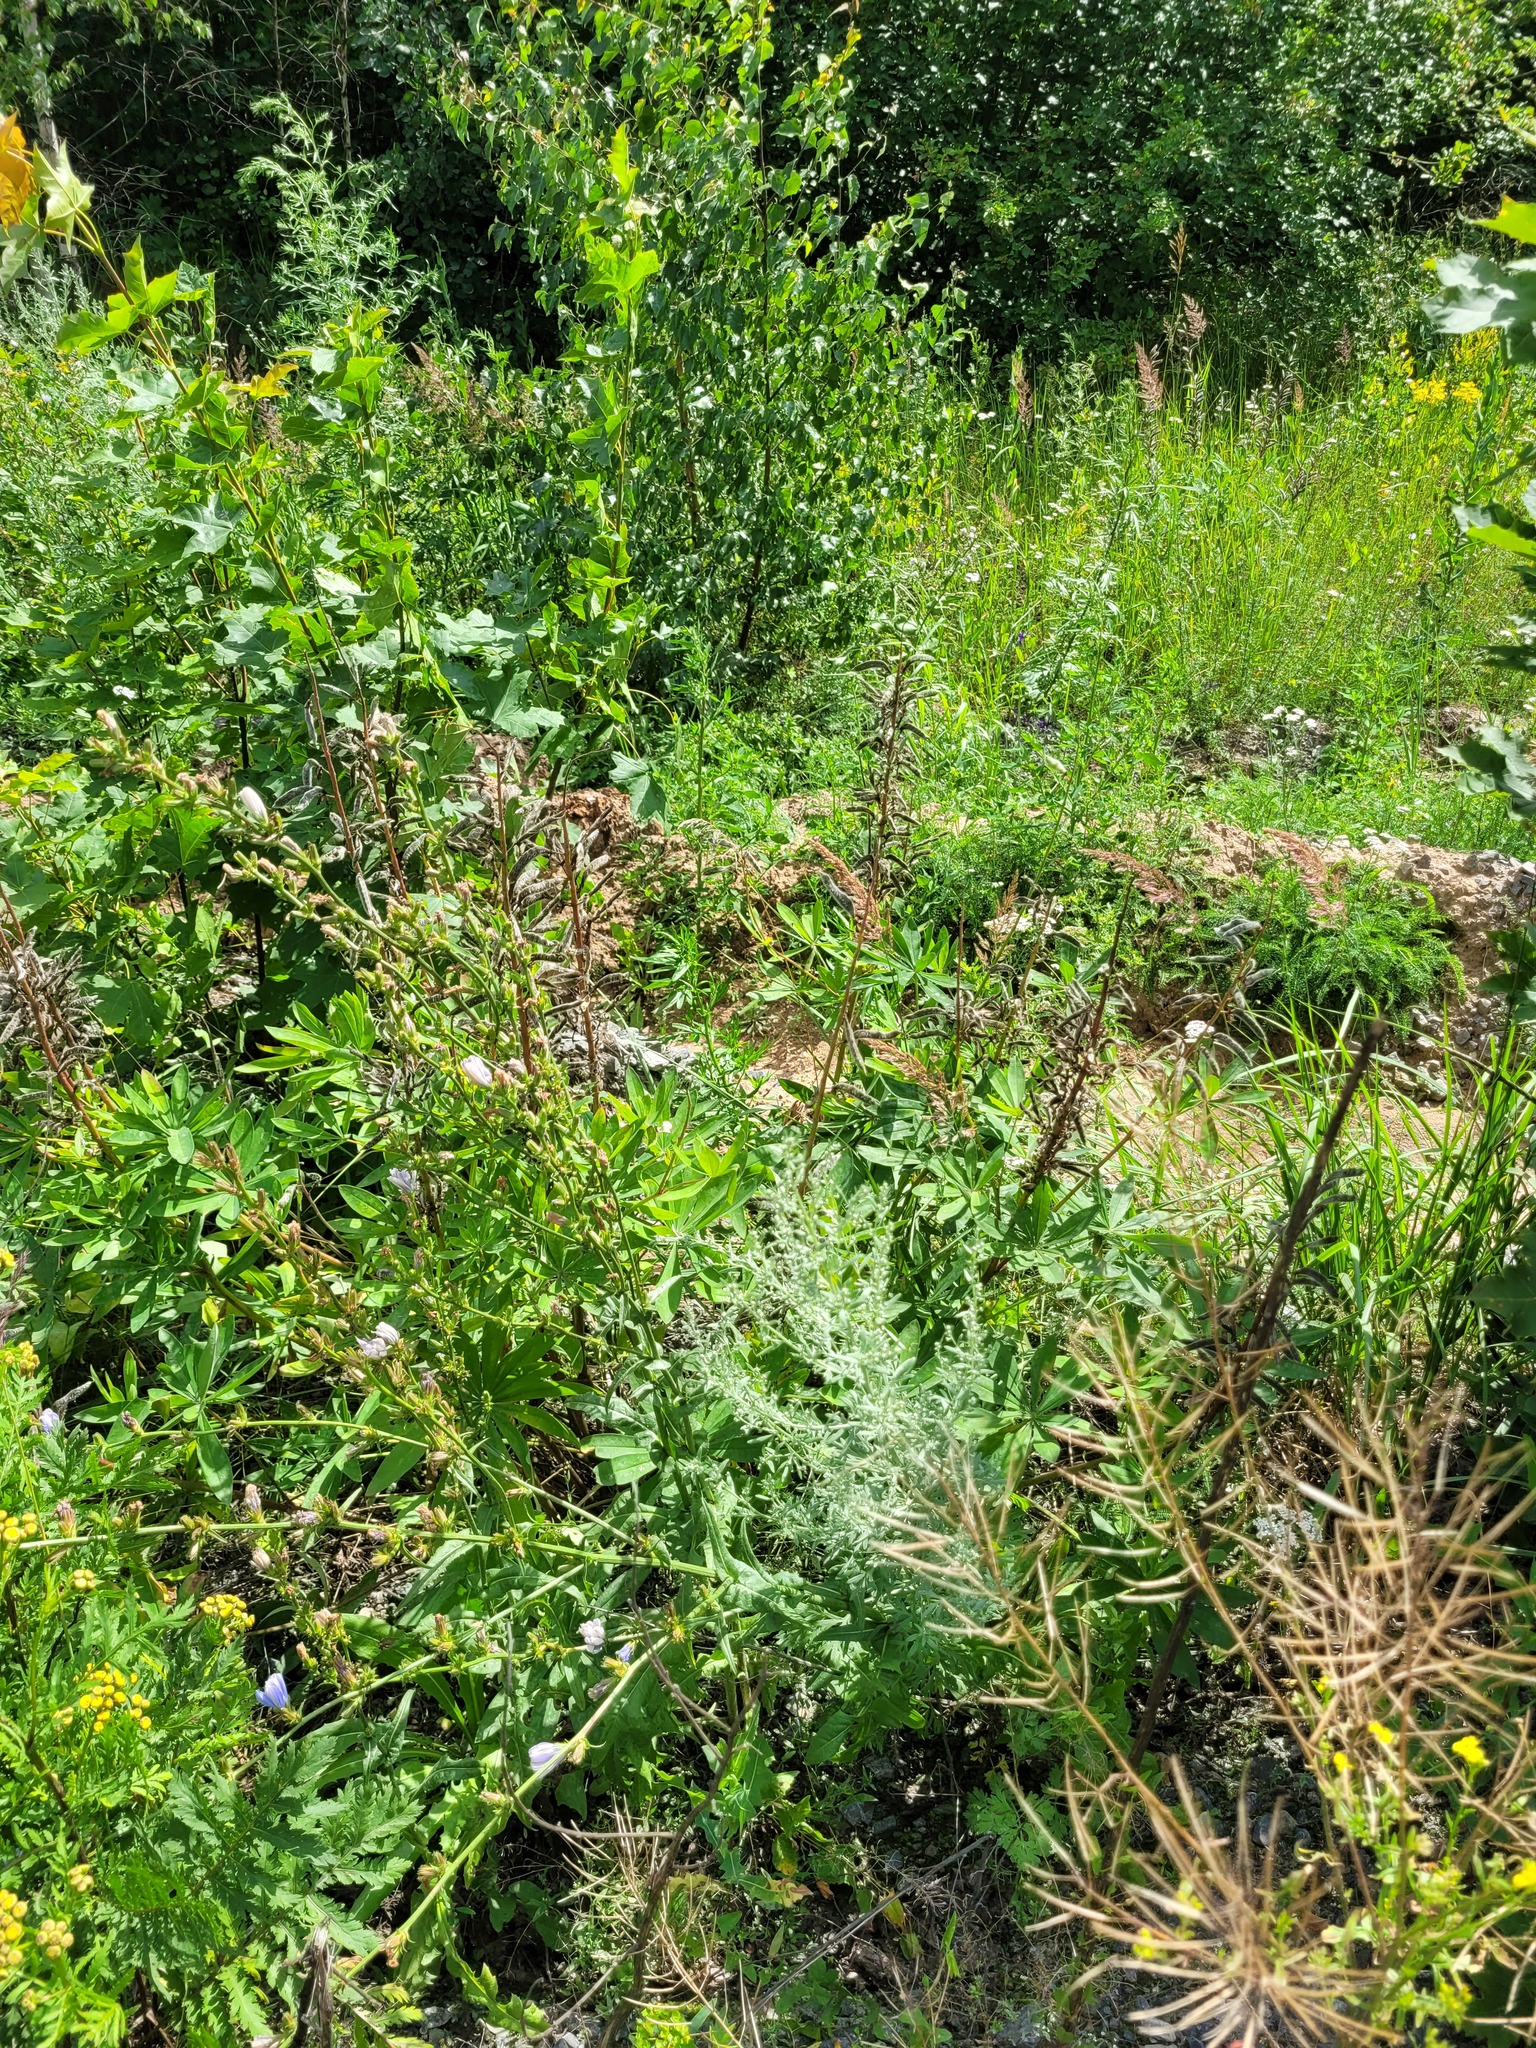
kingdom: Plantae
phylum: Tracheophyta
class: Magnoliopsida
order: Fabales
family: Fabaceae
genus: Lupinus
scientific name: Lupinus polyphyllus
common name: Garden lupin
